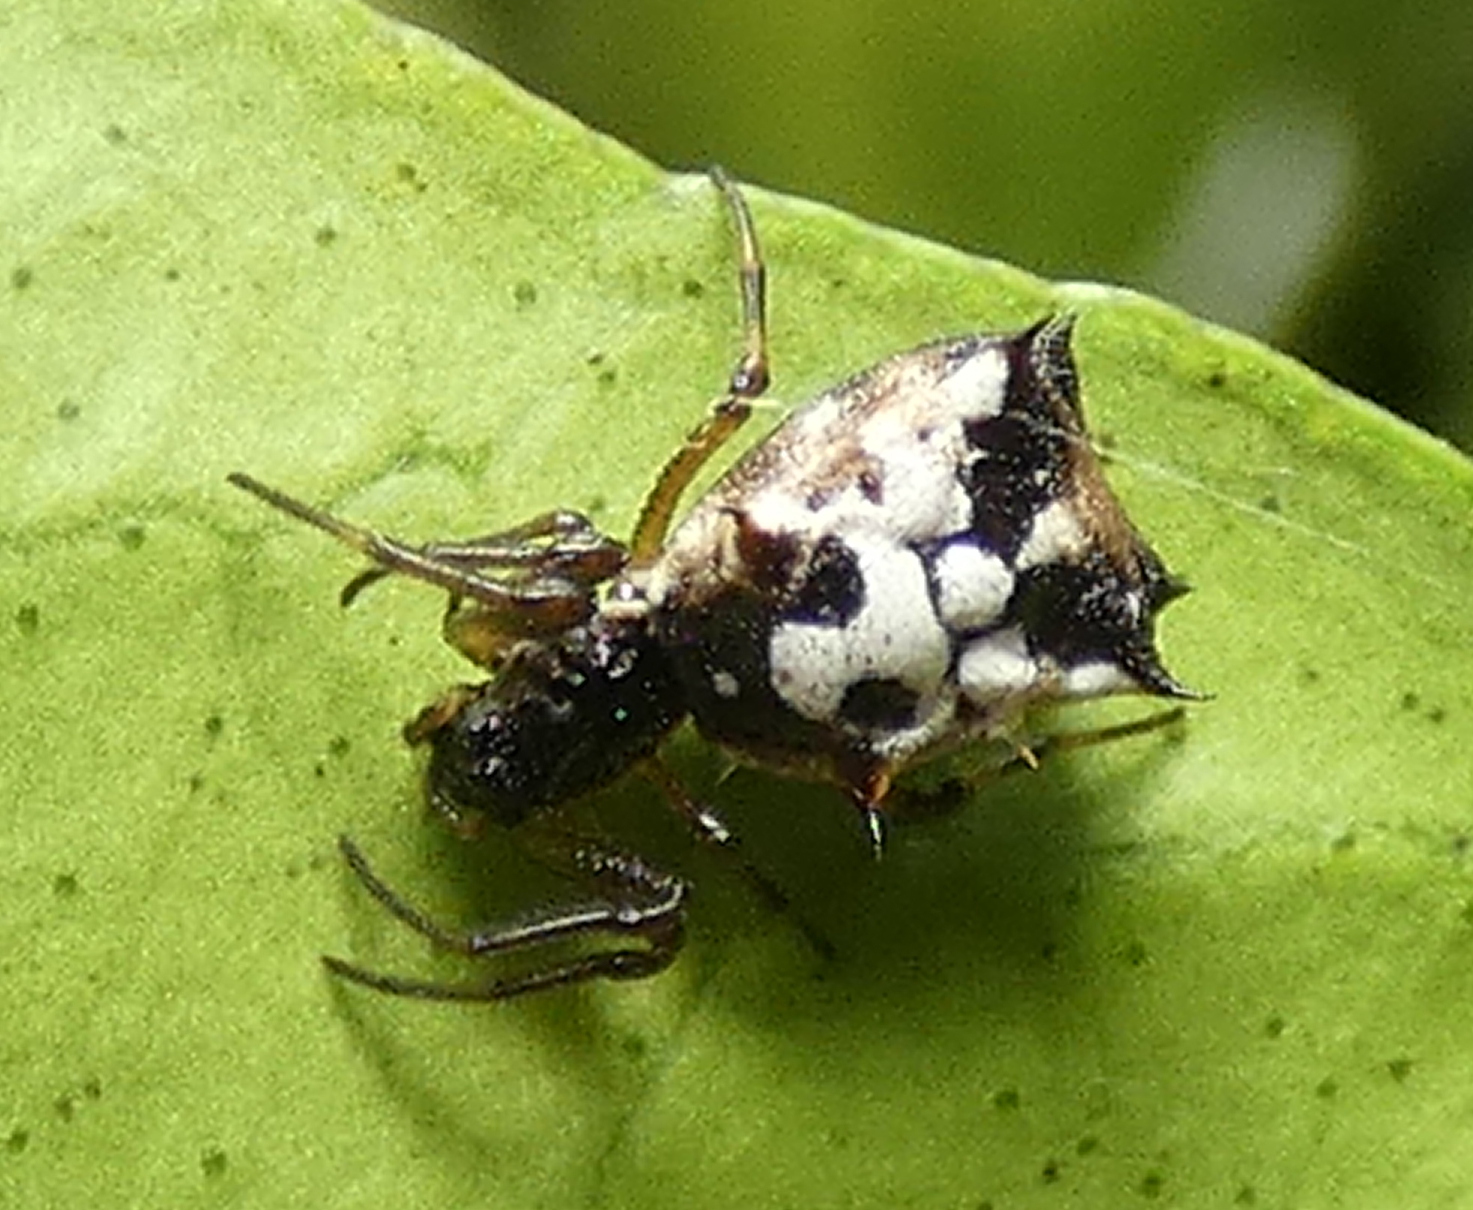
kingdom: Animalia
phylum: Arthropoda
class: Arachnida
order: Araneae
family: Araneidae
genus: Micrathena
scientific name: Micrathena patruelis
